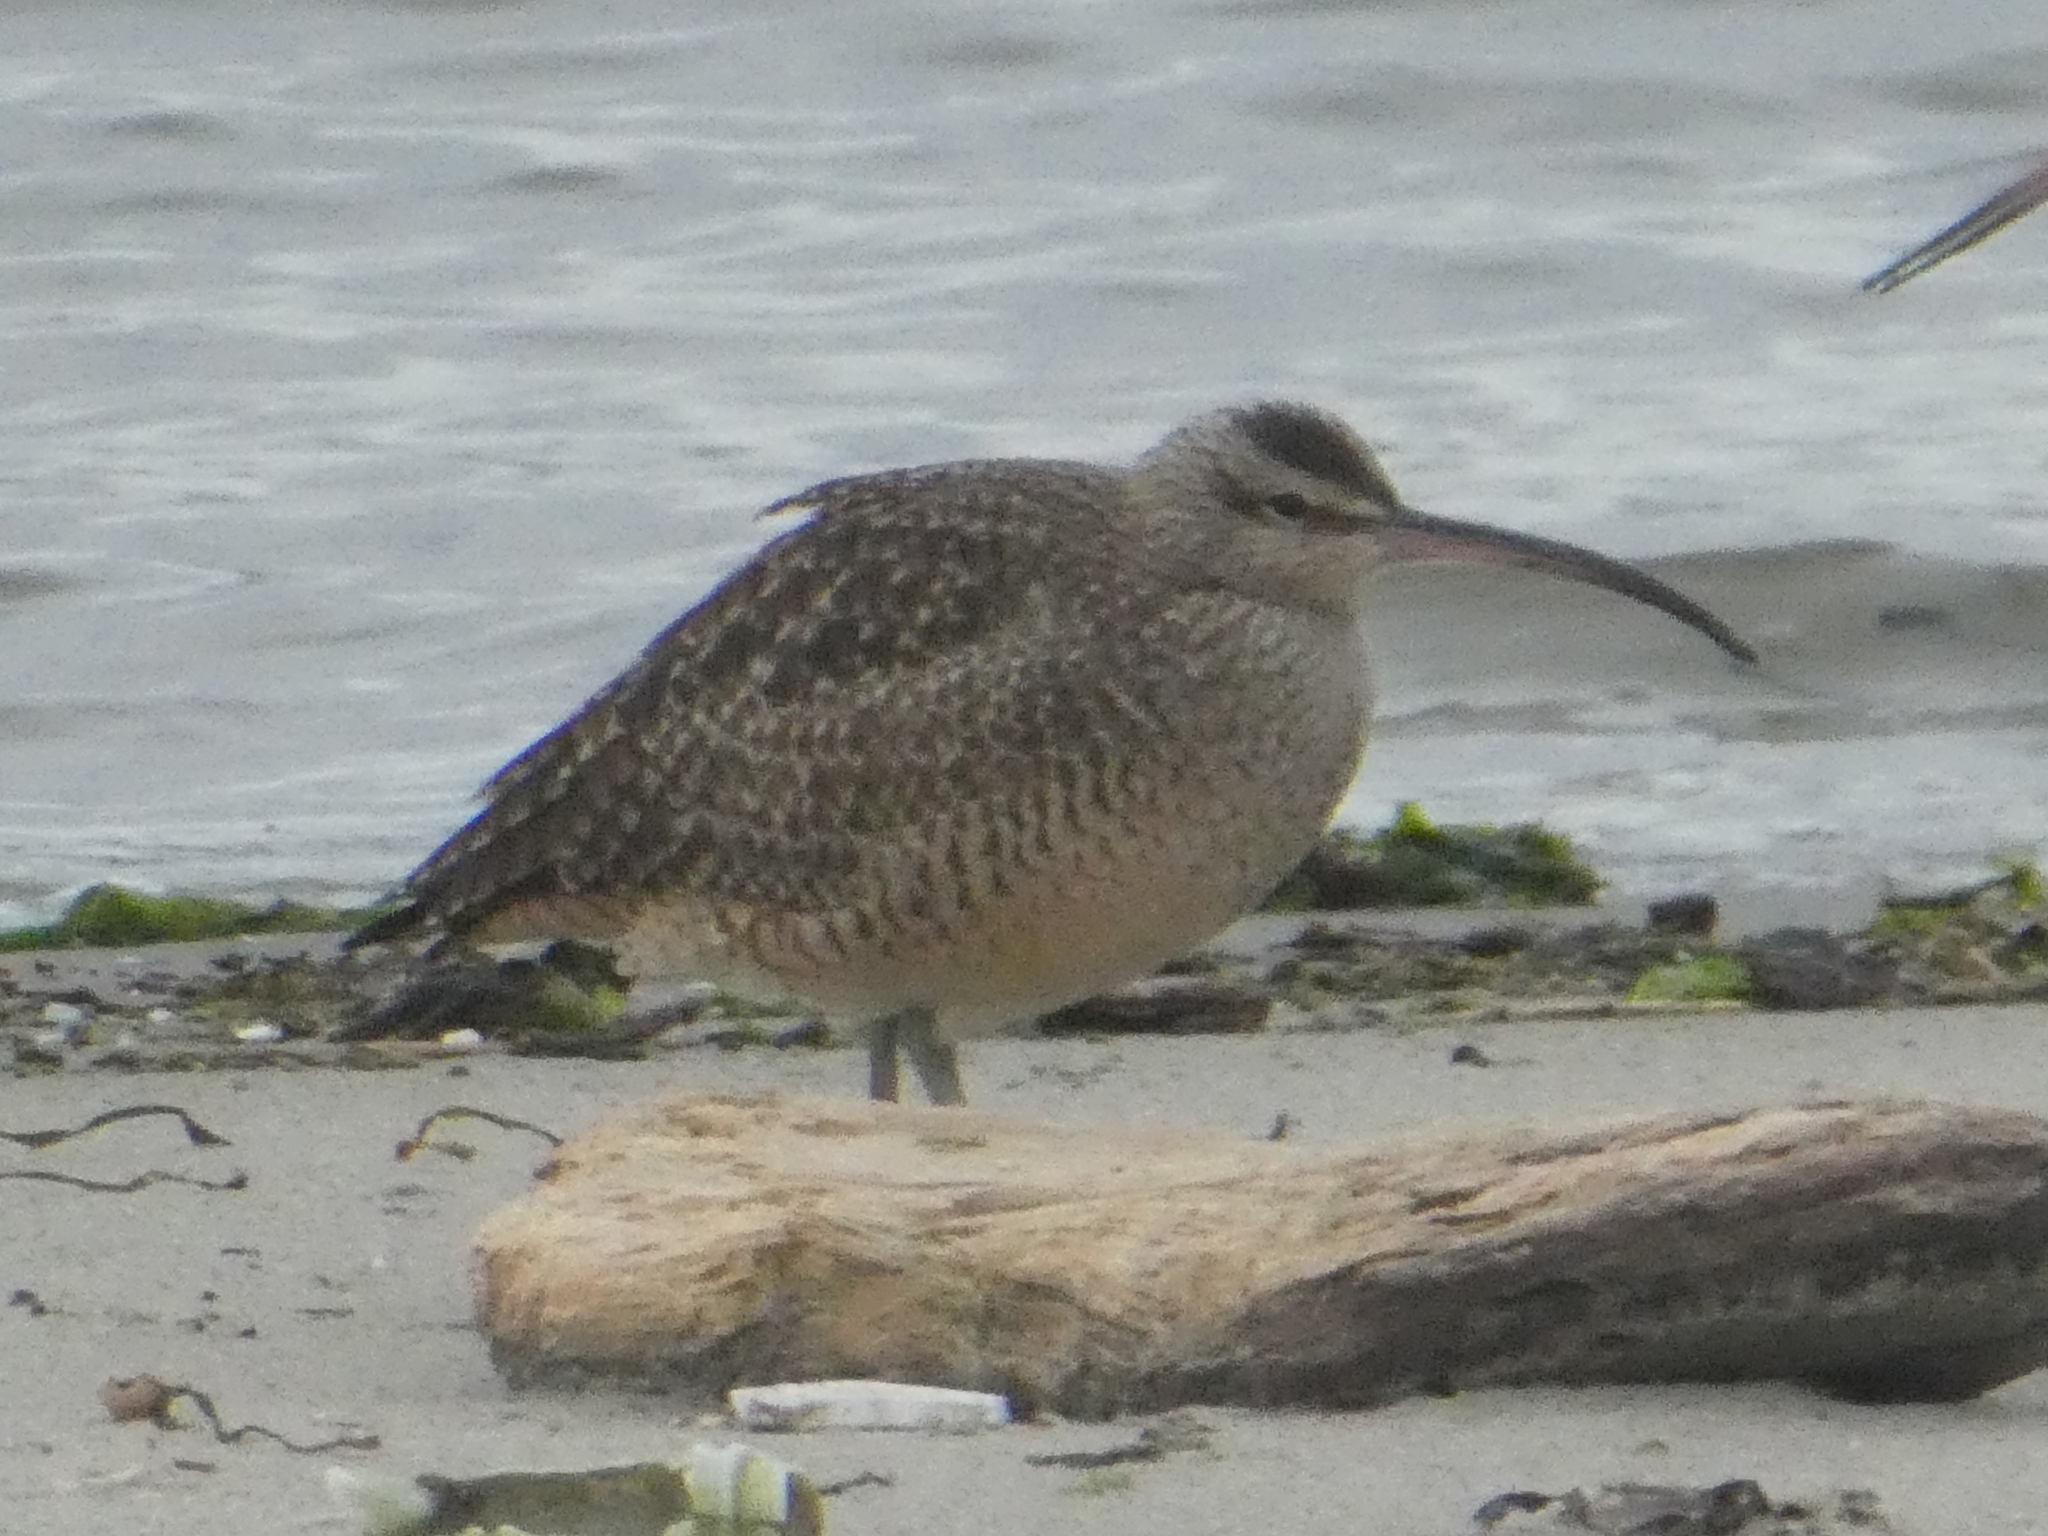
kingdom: Animalia
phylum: Chordata
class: Aves
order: Charadriiformes
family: Scolopacidae
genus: Numenius
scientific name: Numenius phaeopus
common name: Whimbrel
